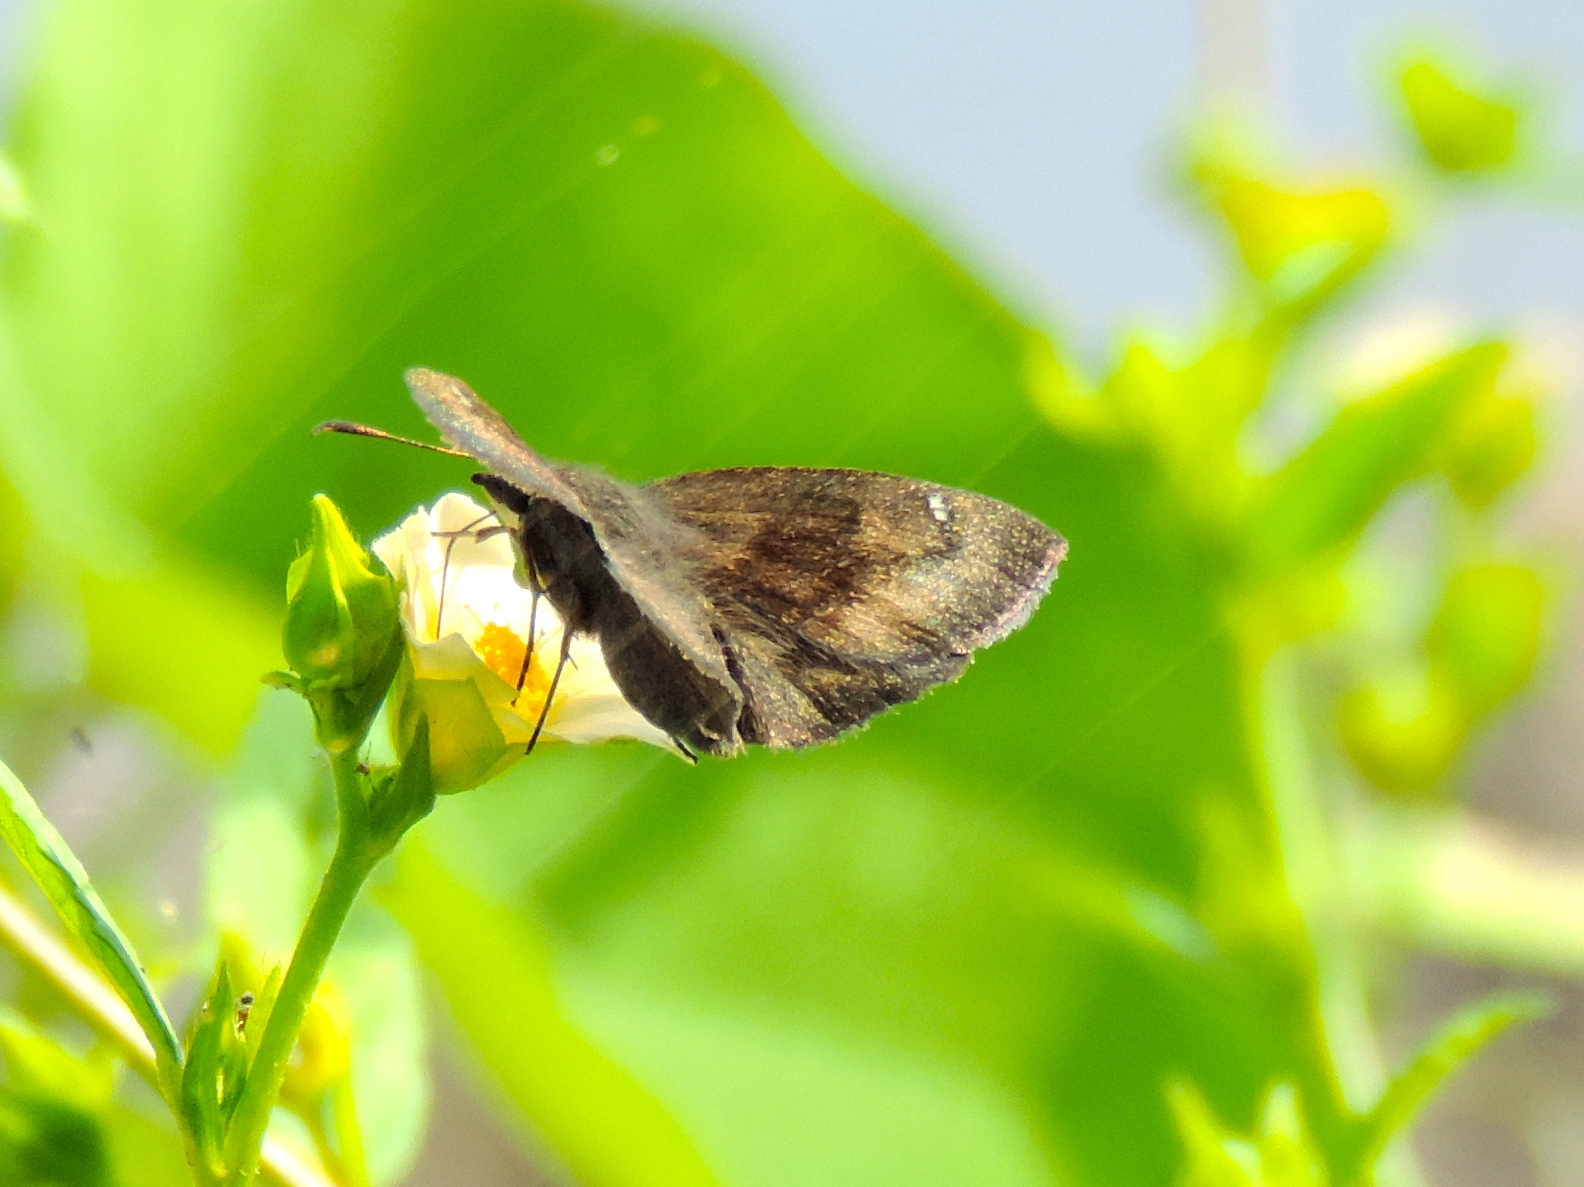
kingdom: Animalia
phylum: Arthropoda
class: Insecta
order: Lepidoptera
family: Hesperiidae
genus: Staphylus
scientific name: Staphylus
